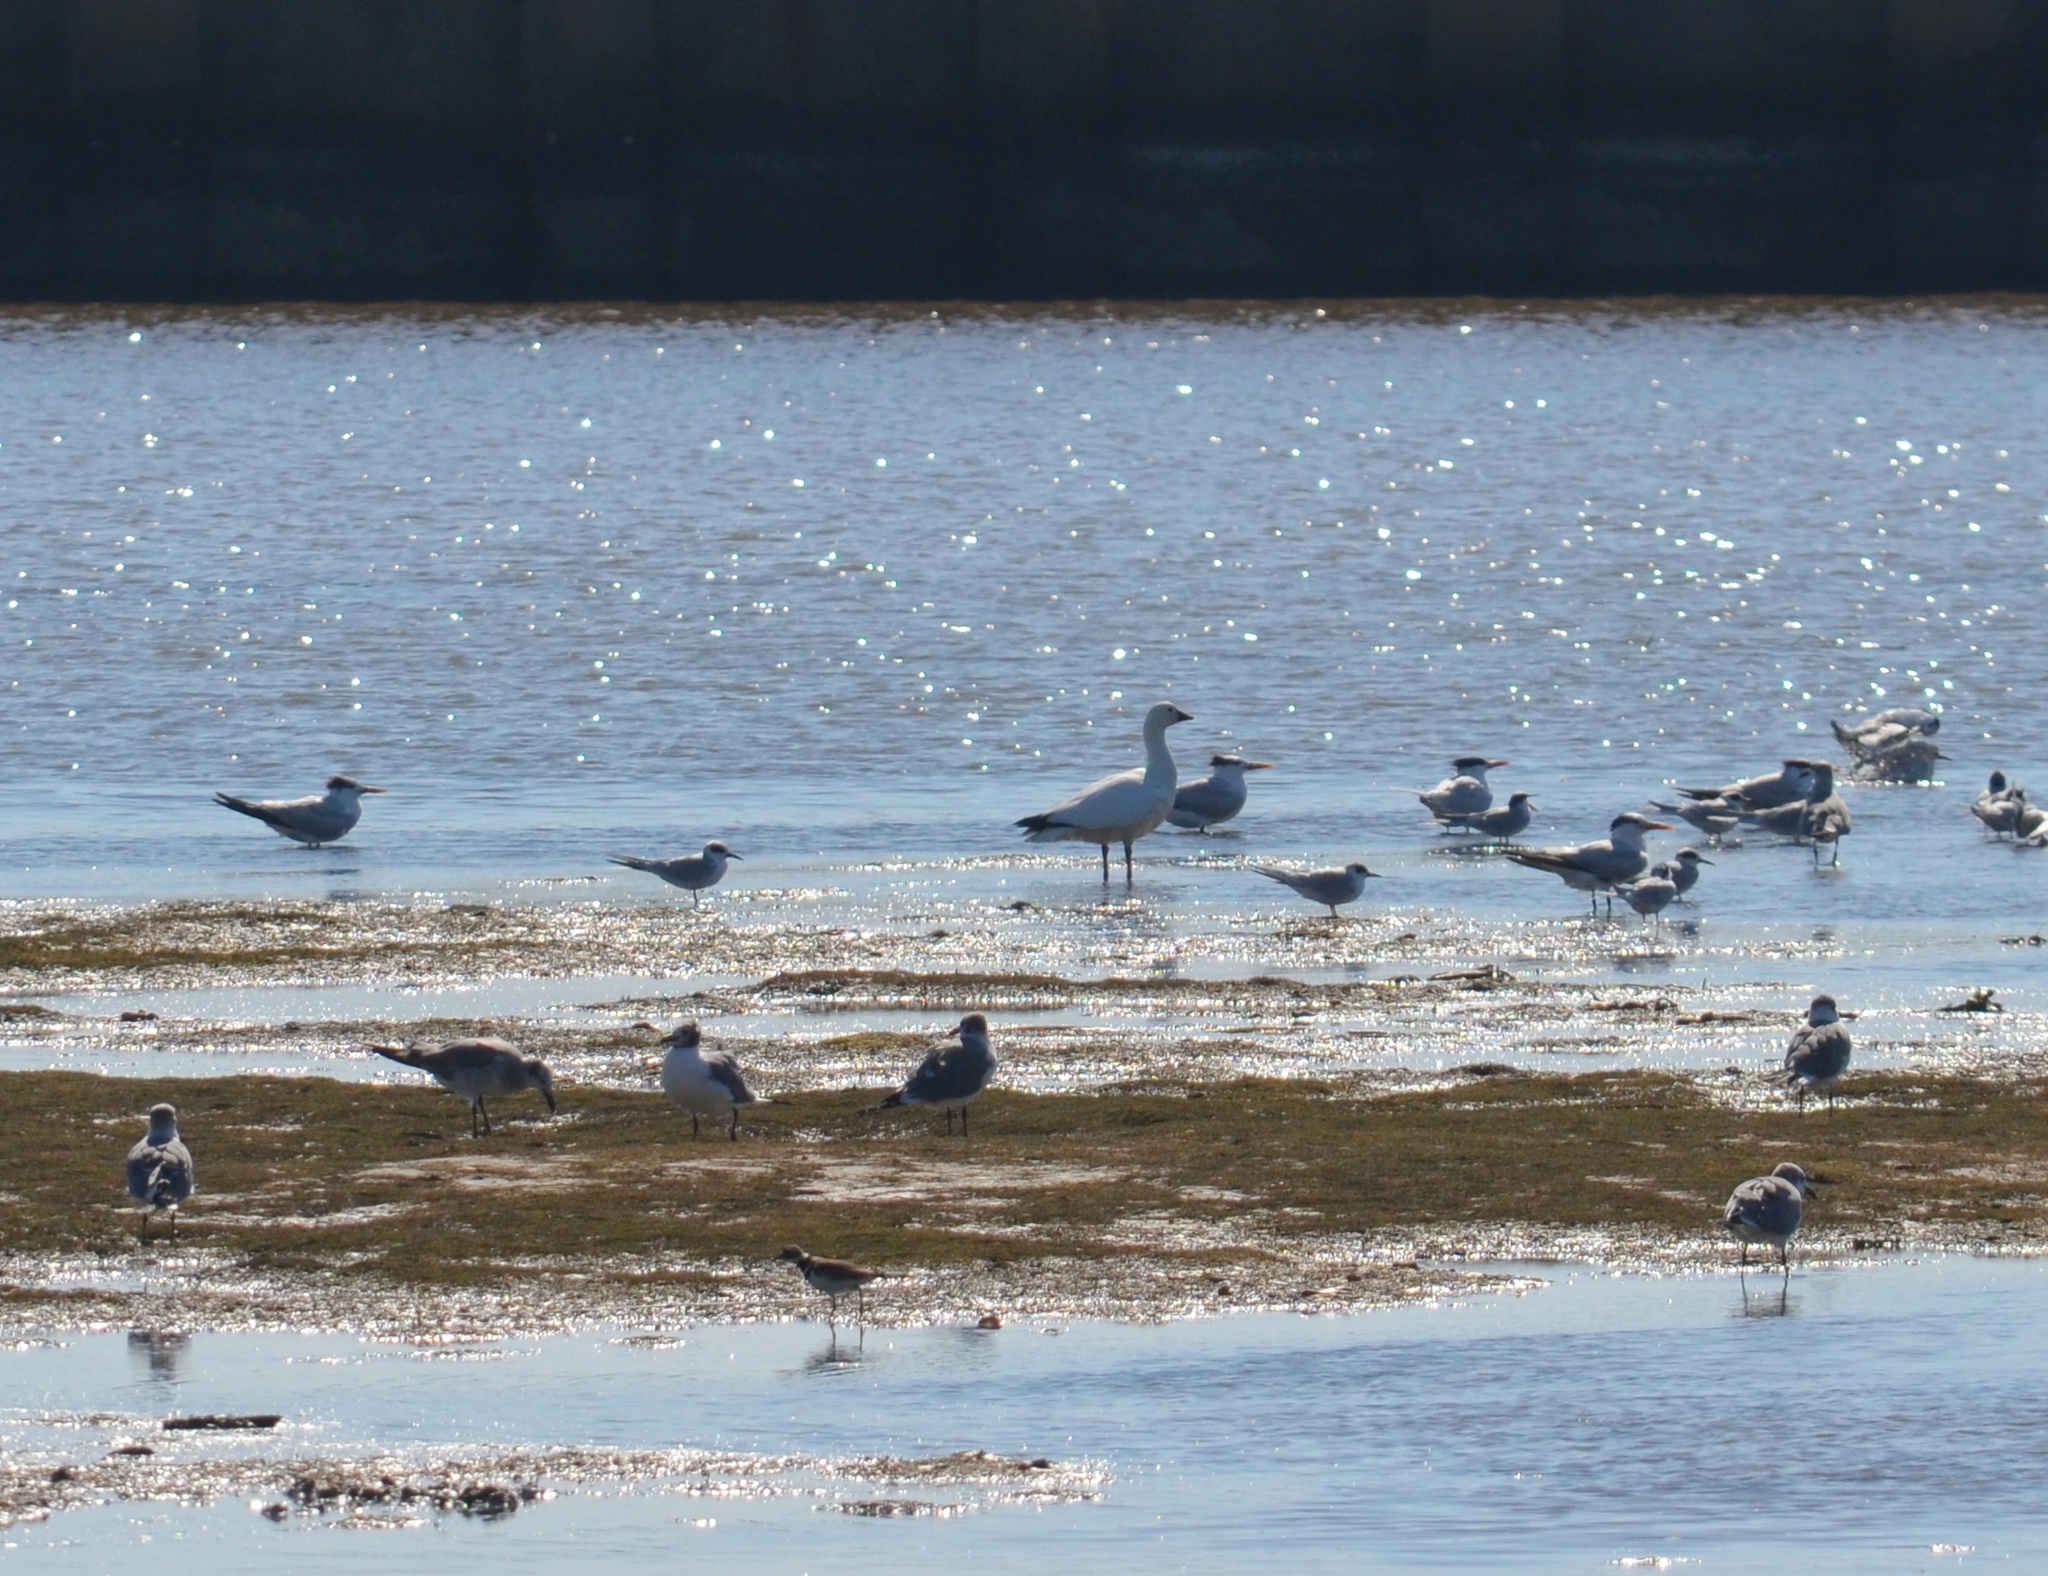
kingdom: Animalia
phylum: Chordata
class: Aves
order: Anseriformes
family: Anatidae
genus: Anser
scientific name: Anser caerulescens
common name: Snow goose
